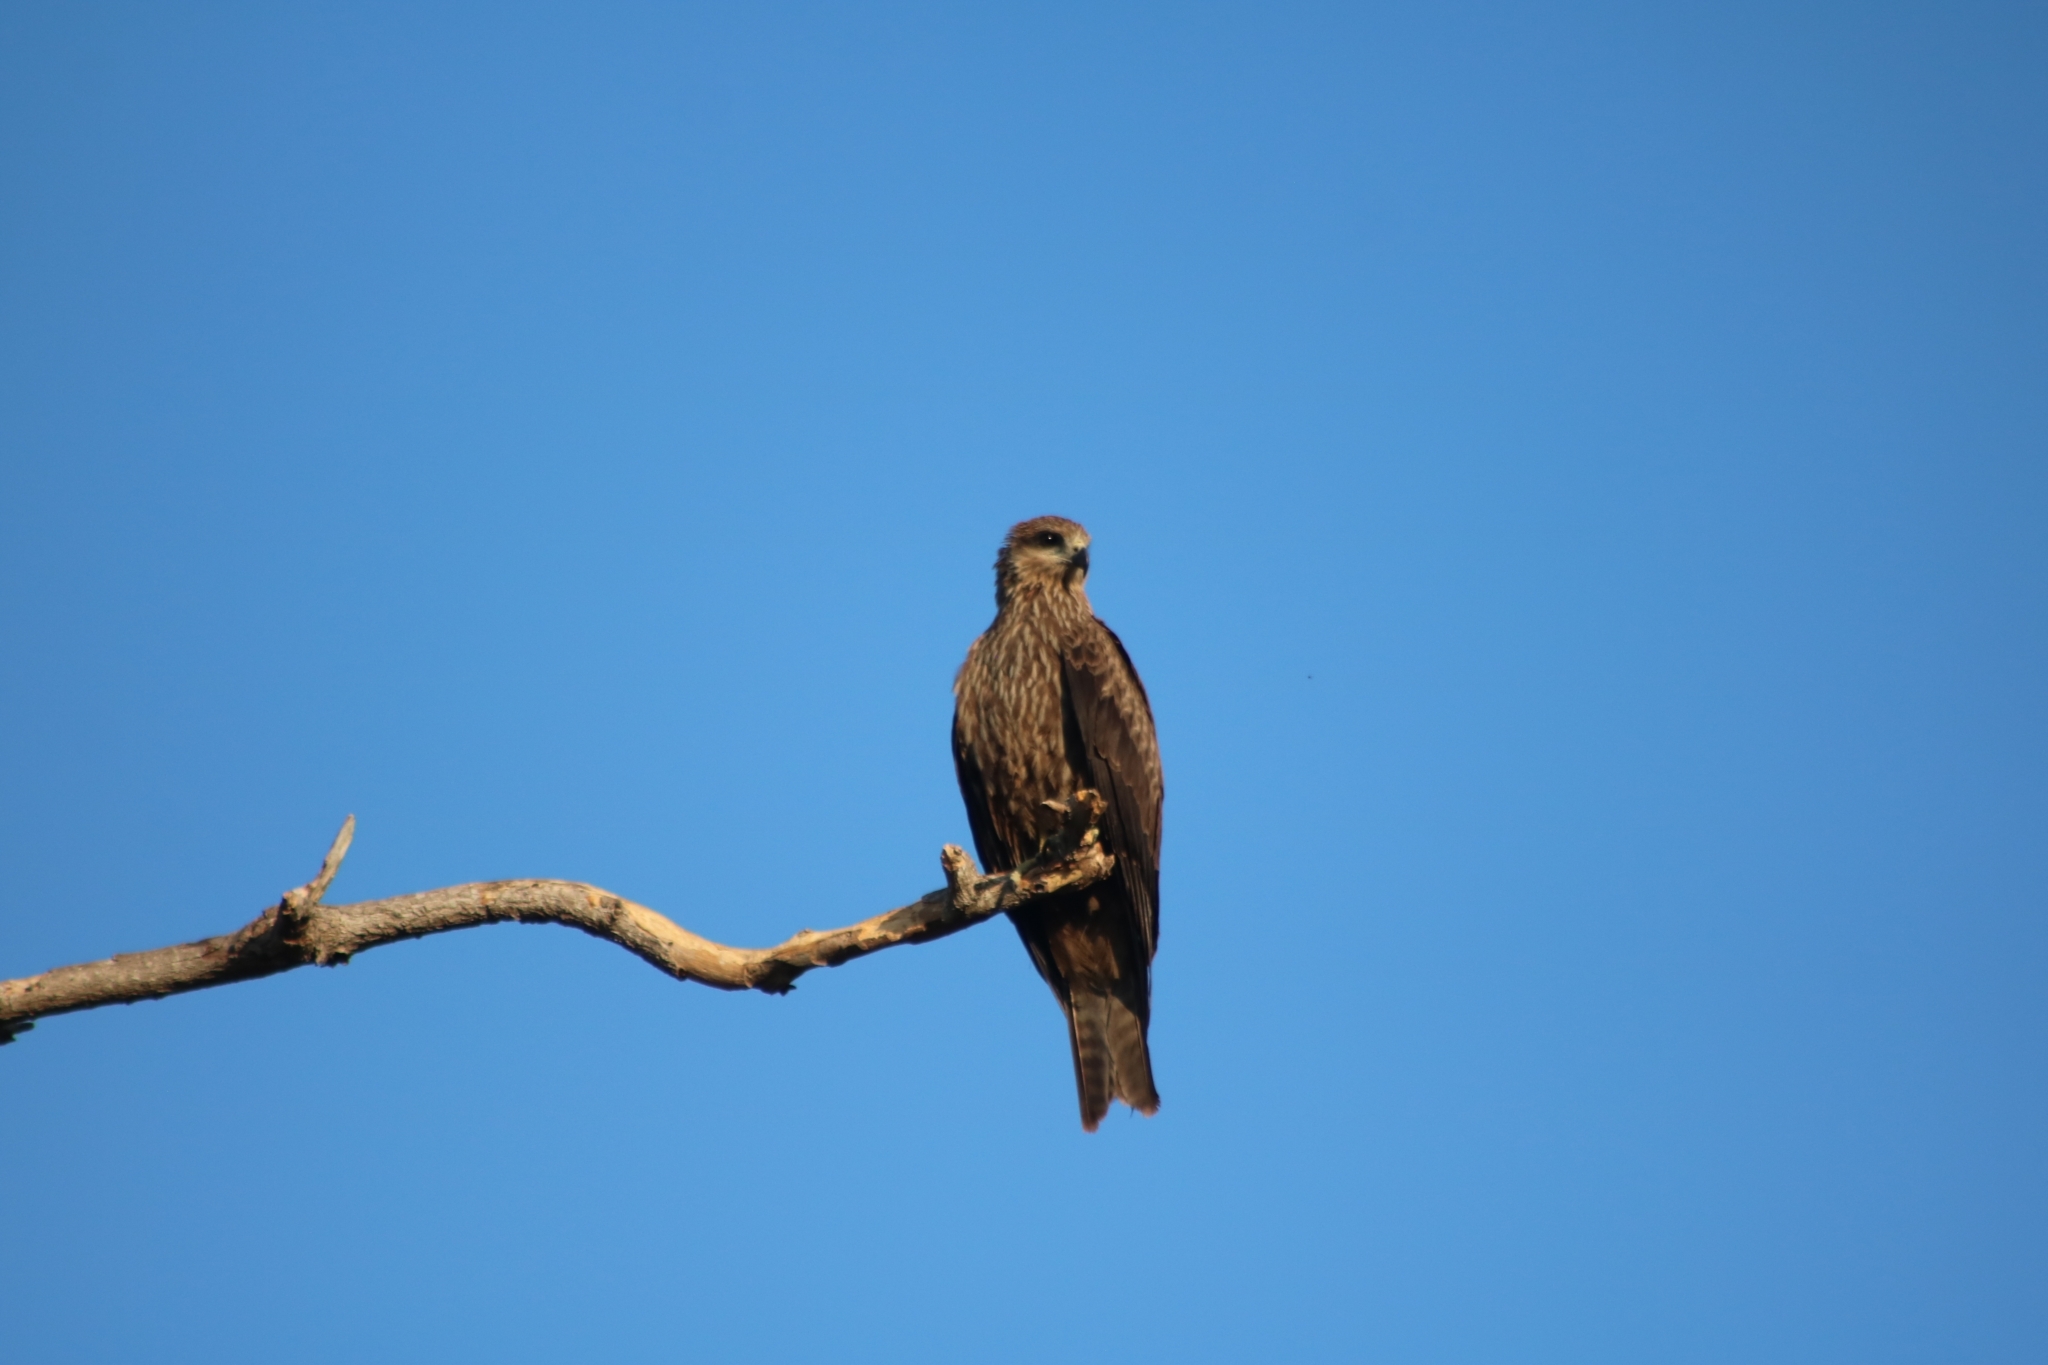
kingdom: Animalia
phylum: Chordata
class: Aves
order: Accipitriformes
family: Accipitridae
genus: Milvus
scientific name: Milvus migrans
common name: Black kite
